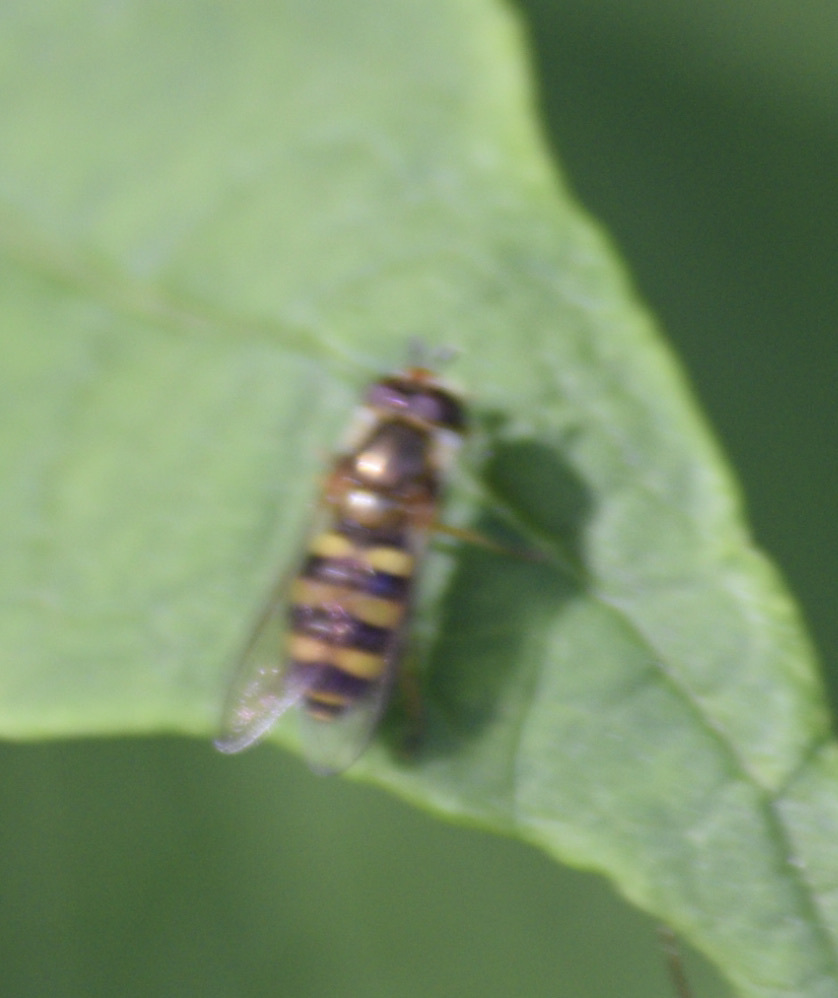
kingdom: Animalia
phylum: Arthropoda
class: Insecta
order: Diptera
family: Syrphidae
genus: Eupeodes
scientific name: Eupeodes
